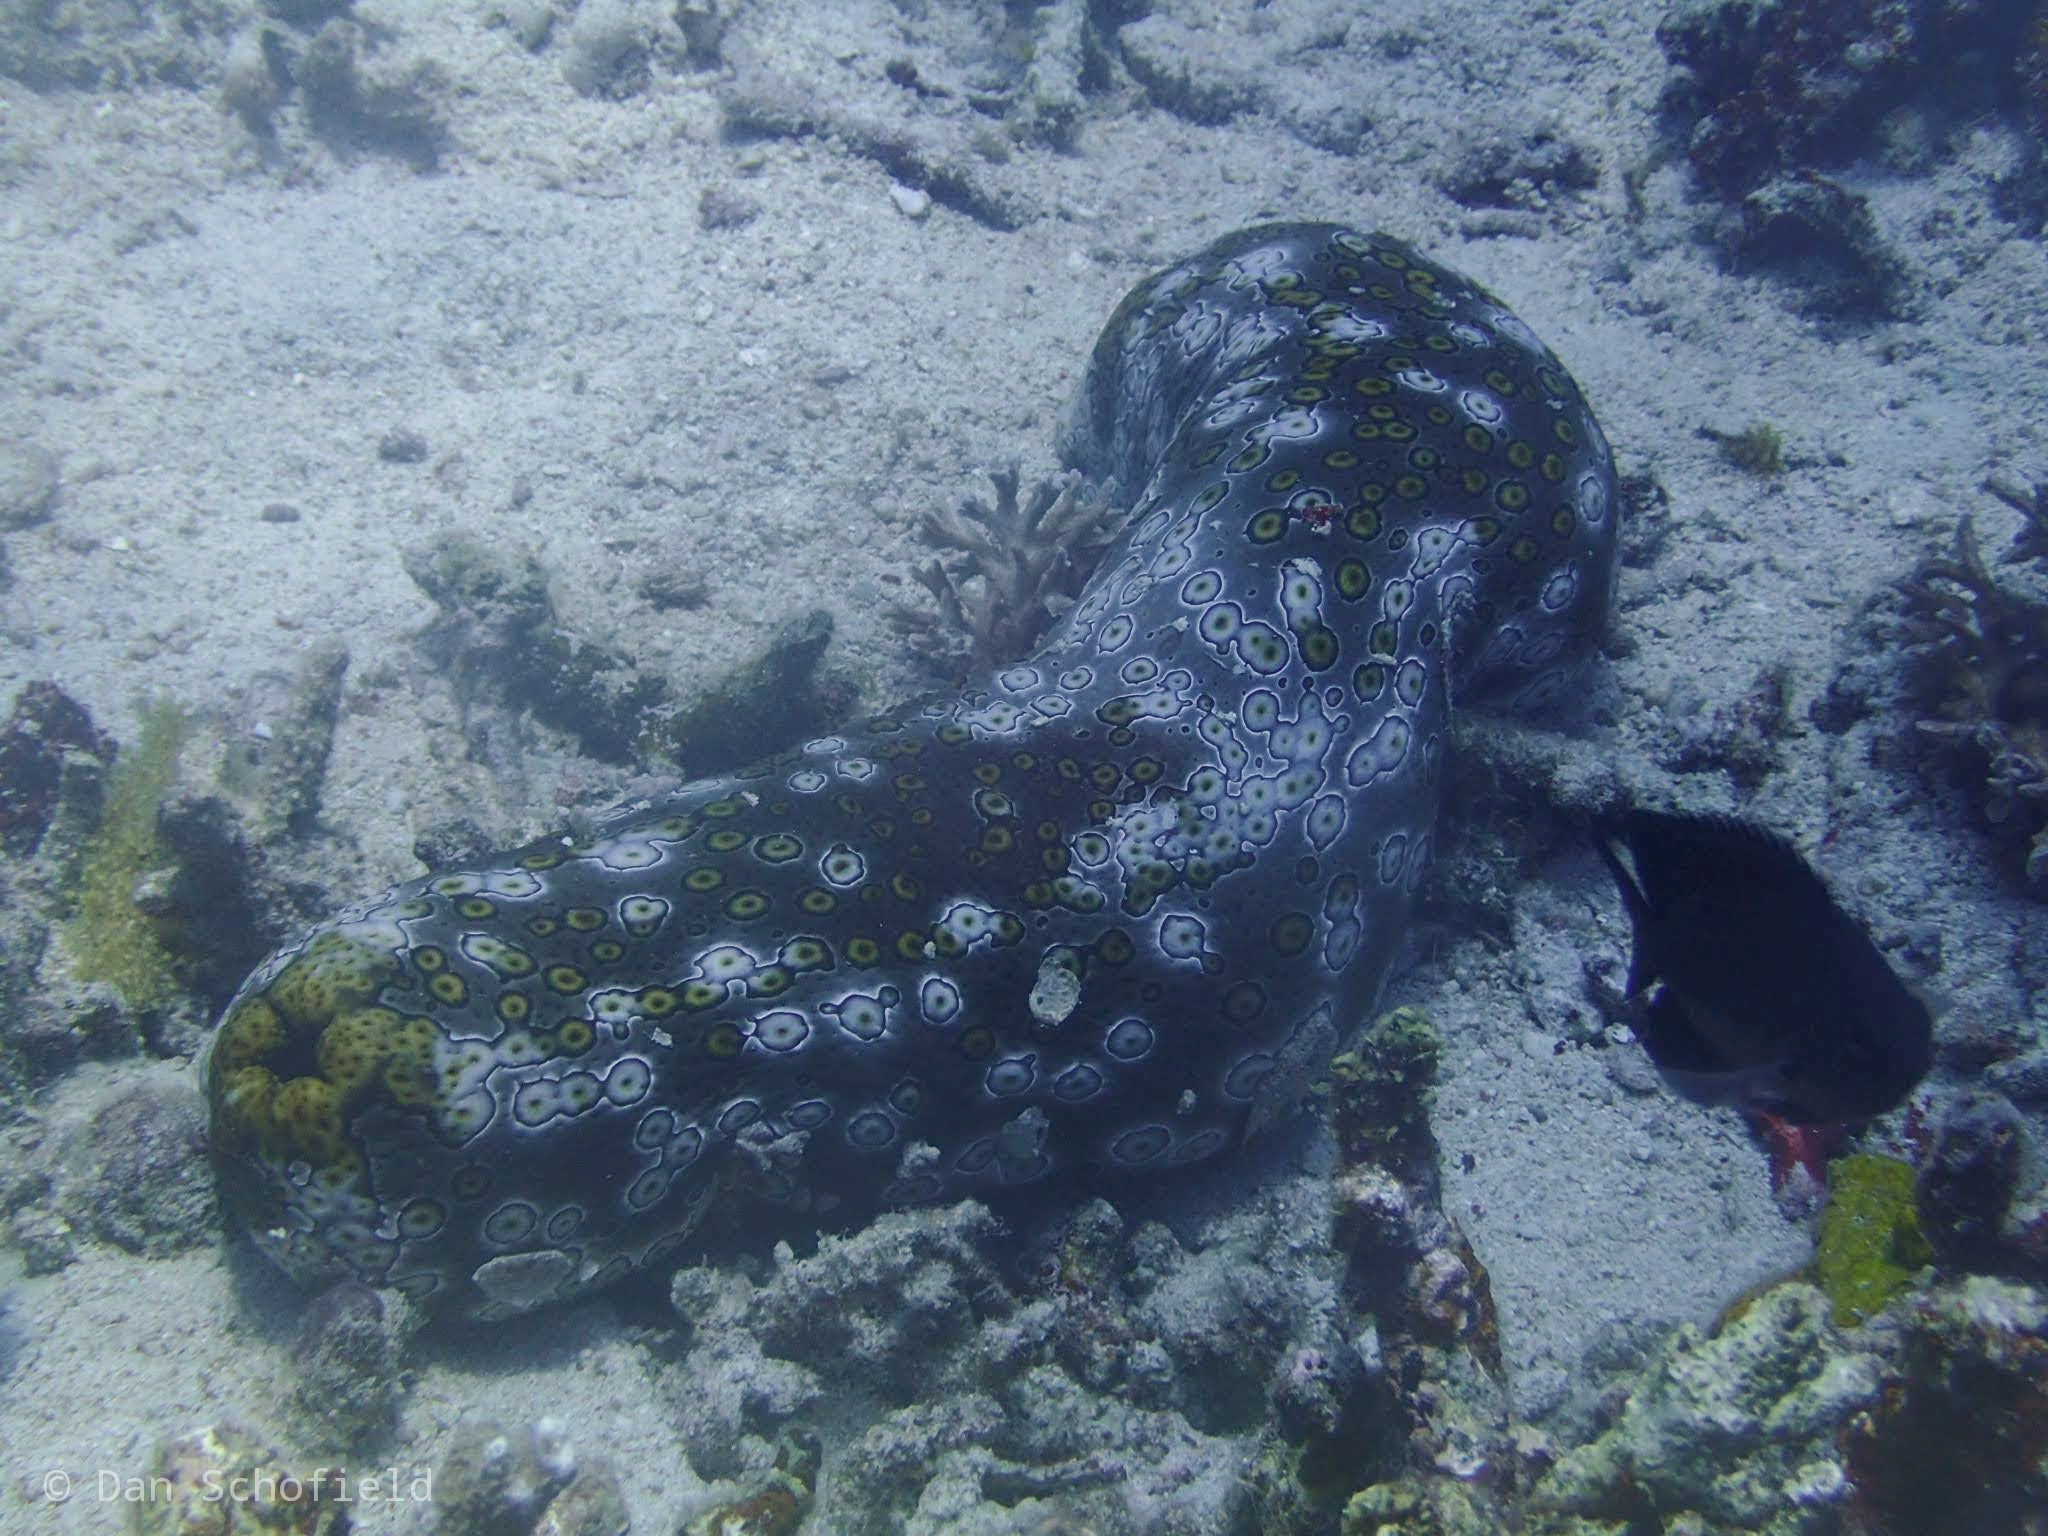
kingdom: Animalia
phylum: Echinodermata
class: Holothuroidea
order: Holothuriida
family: Holothuriidae
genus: Bohadschia
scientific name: Bohadschia argus
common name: Leopardfish
